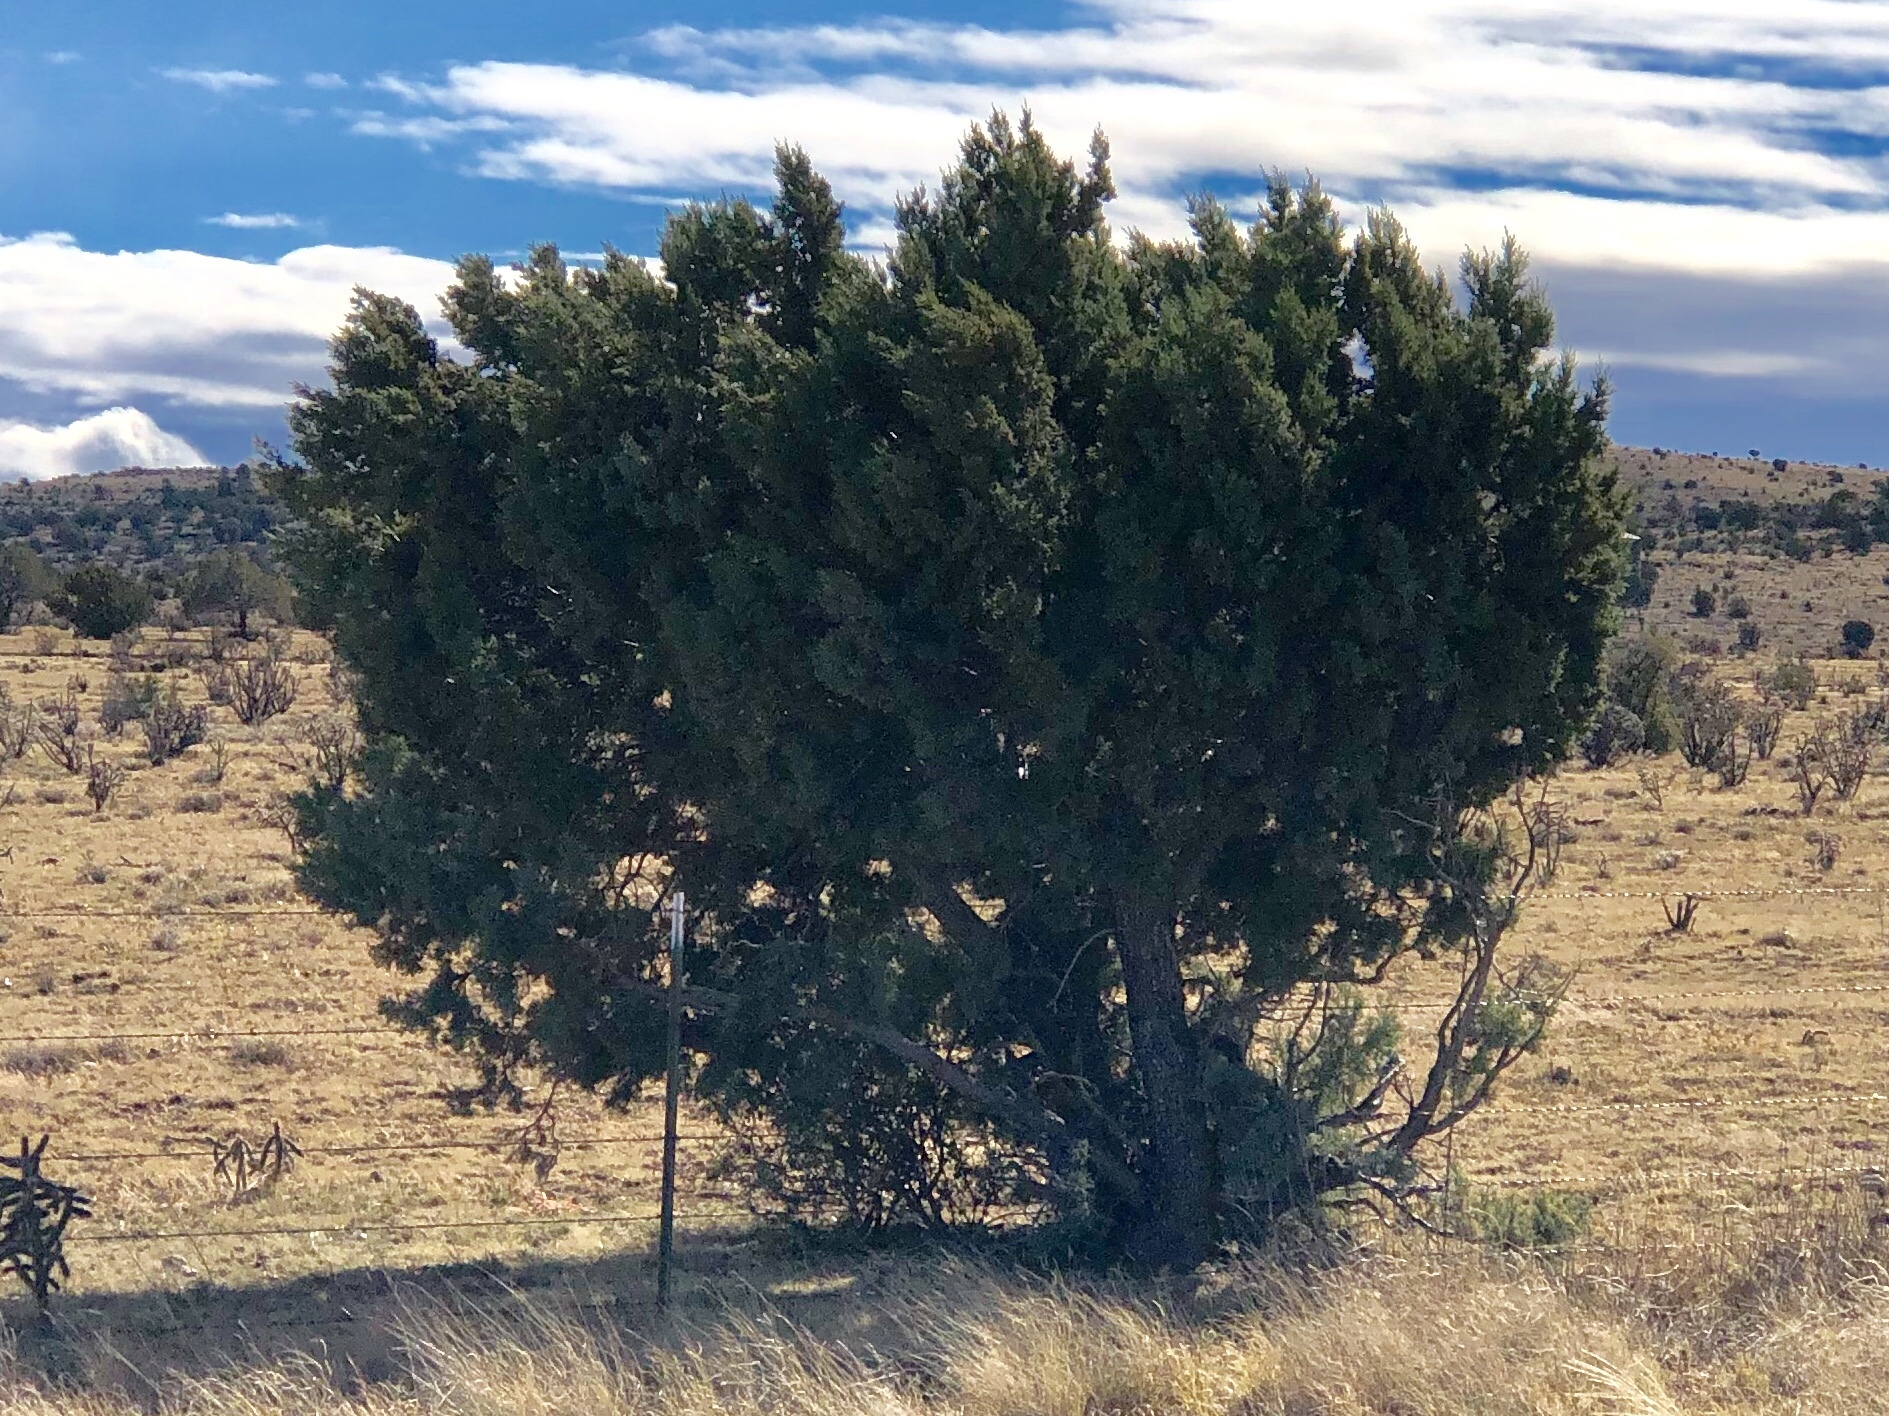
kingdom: Plantae
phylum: Tracheophyta
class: Pinopsida
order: Pinales
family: Cupressaceae
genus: Juniperus
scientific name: Juniperus deppeana
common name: Alligator juniper
